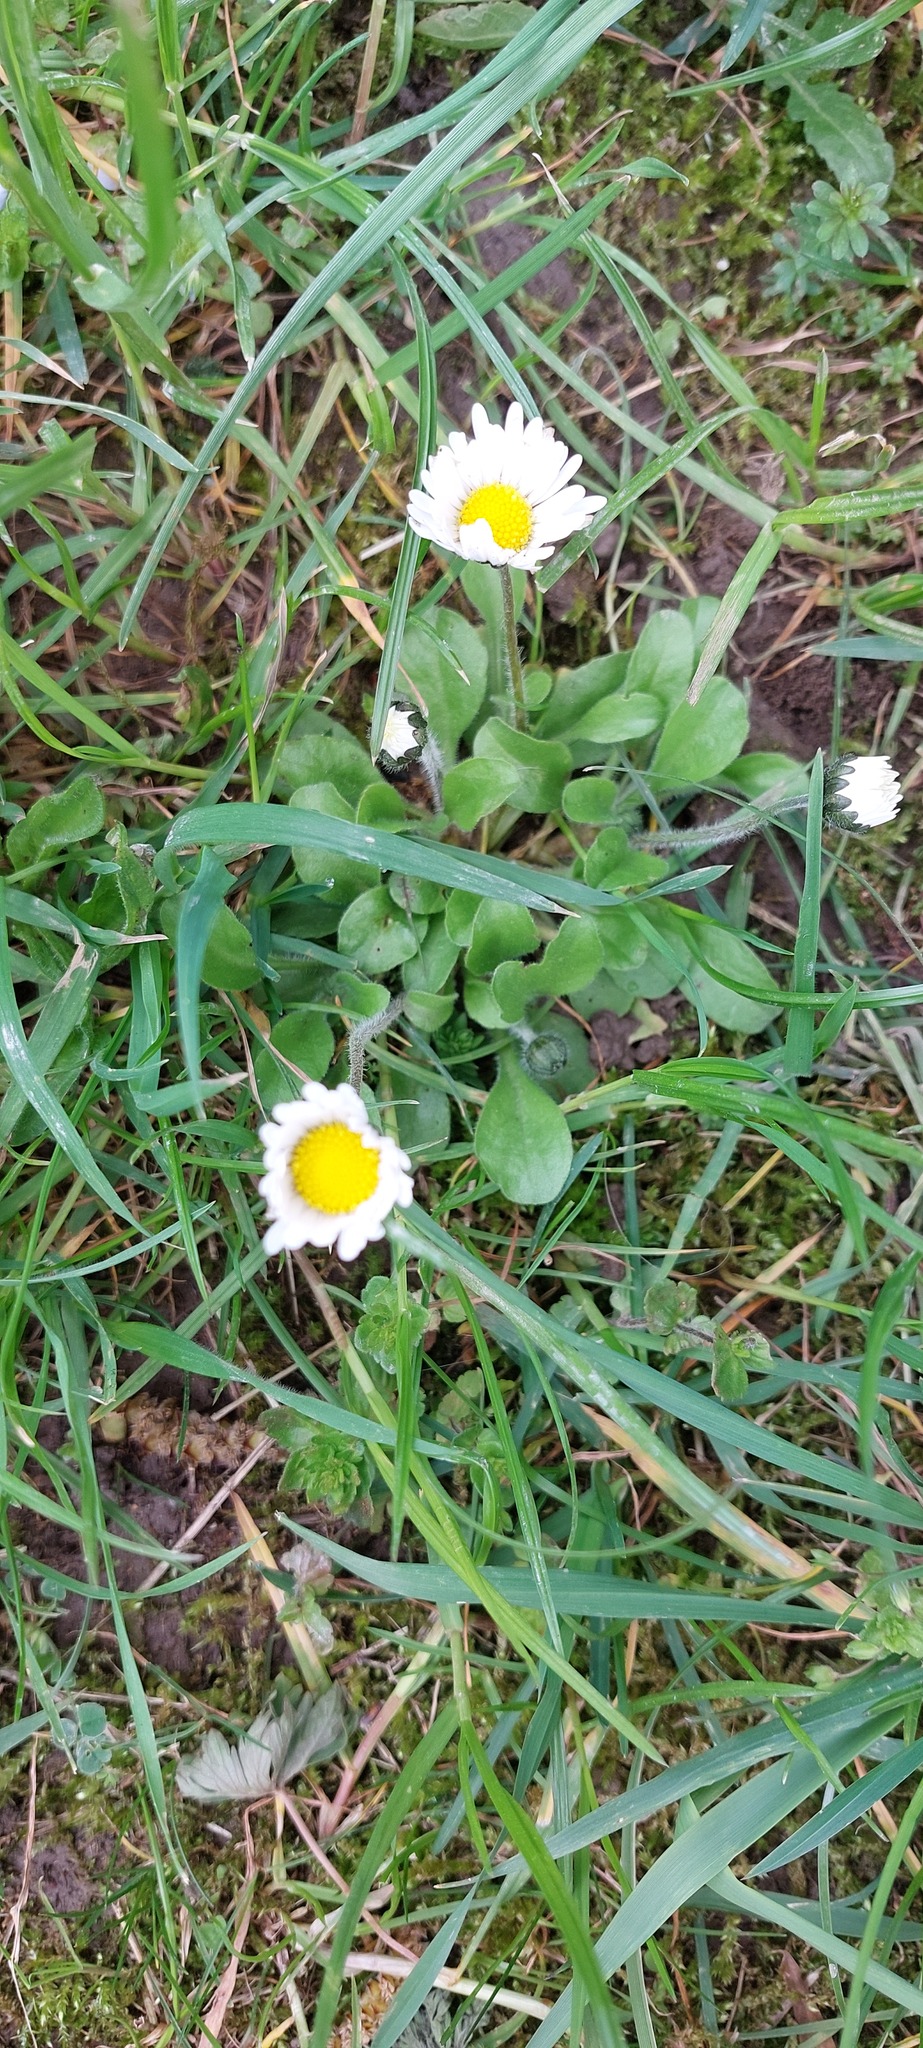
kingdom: Plantae
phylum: Tracheophyta
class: Magnoliopsida
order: Asterales
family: Asteraceae
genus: Bellis
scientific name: Bellis perennis
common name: Lawndaisy
